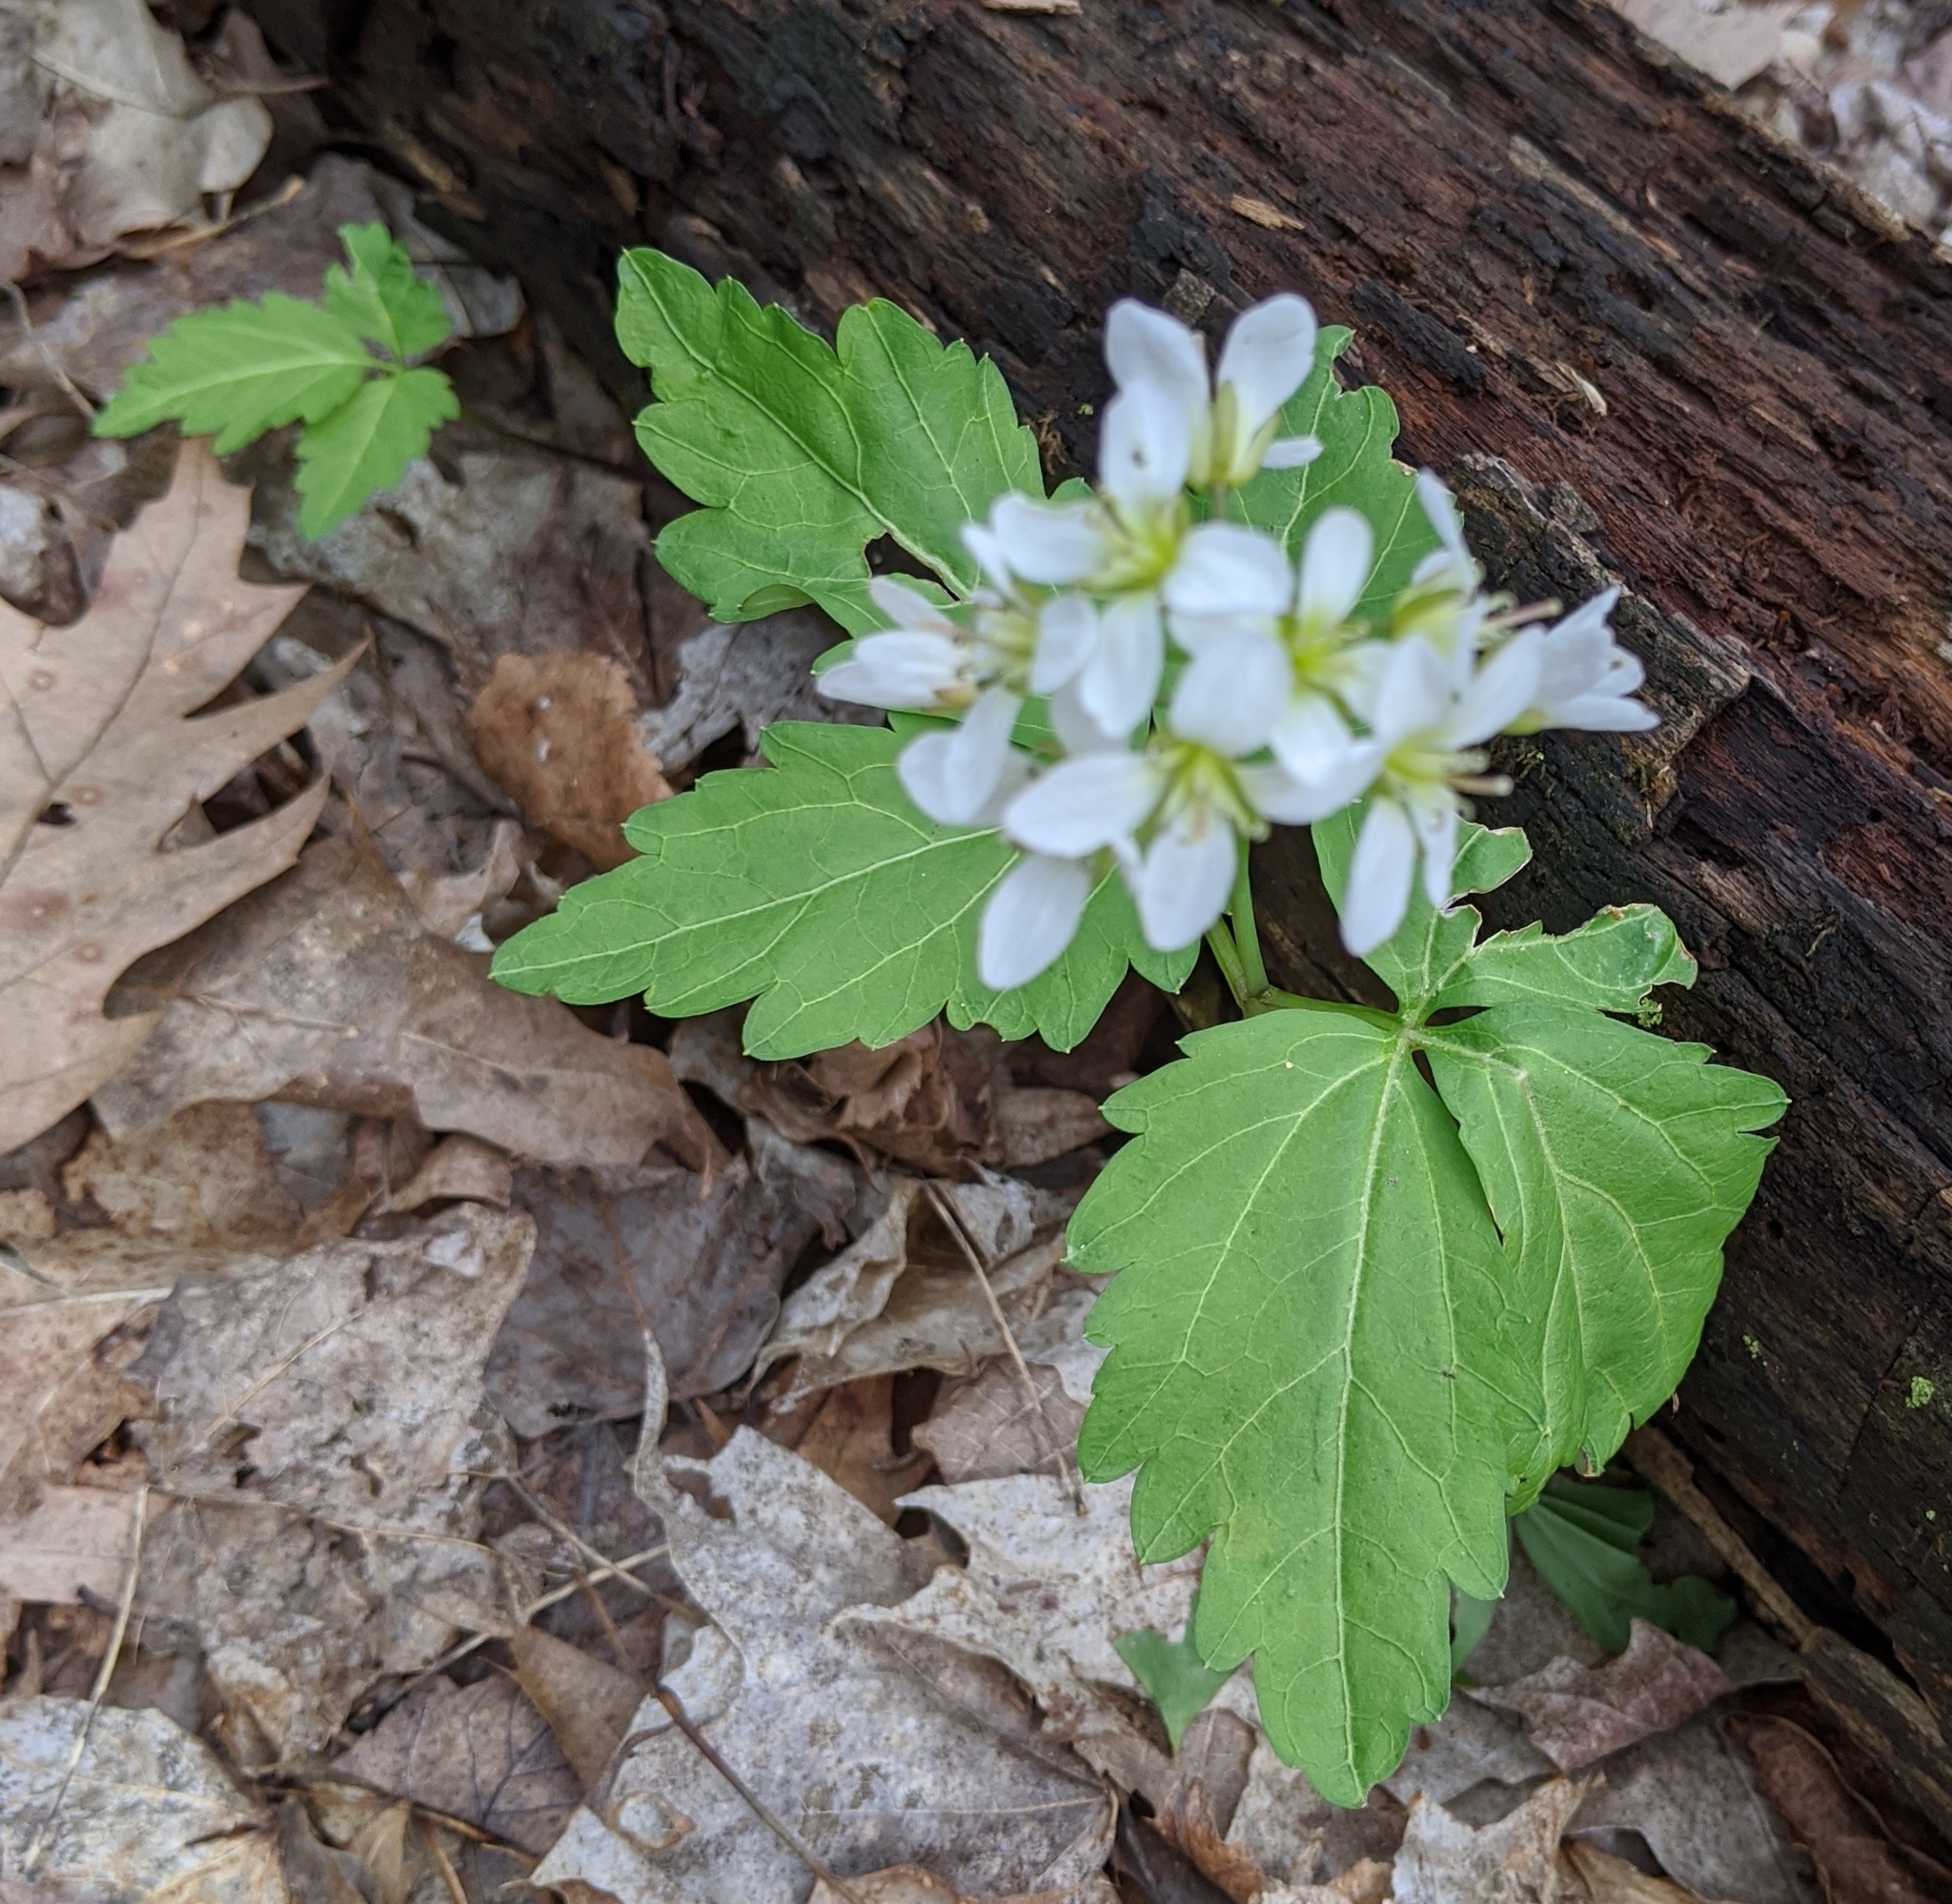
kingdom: Plantae
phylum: Tracheophyta
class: Magnoliopsida
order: Brassicales
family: Brassicaceae
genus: Cardamine
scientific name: Cardamine diphylla
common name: Broad-leaved toothwort
